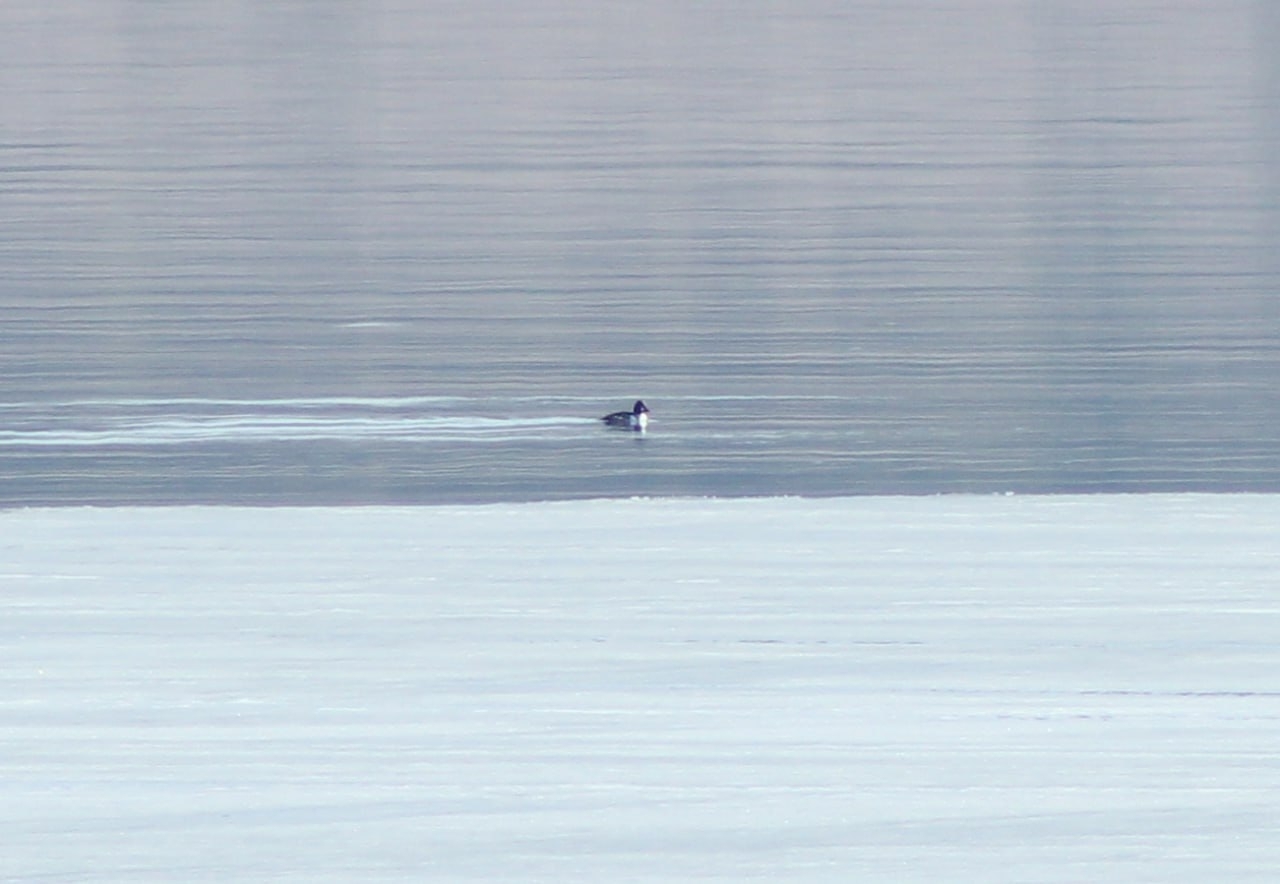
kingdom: Animalia
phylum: Chordata
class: Aves
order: Anseriformes
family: Anatidae
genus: Bucephala
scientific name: Bucephala clangula
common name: Common goldeneye
